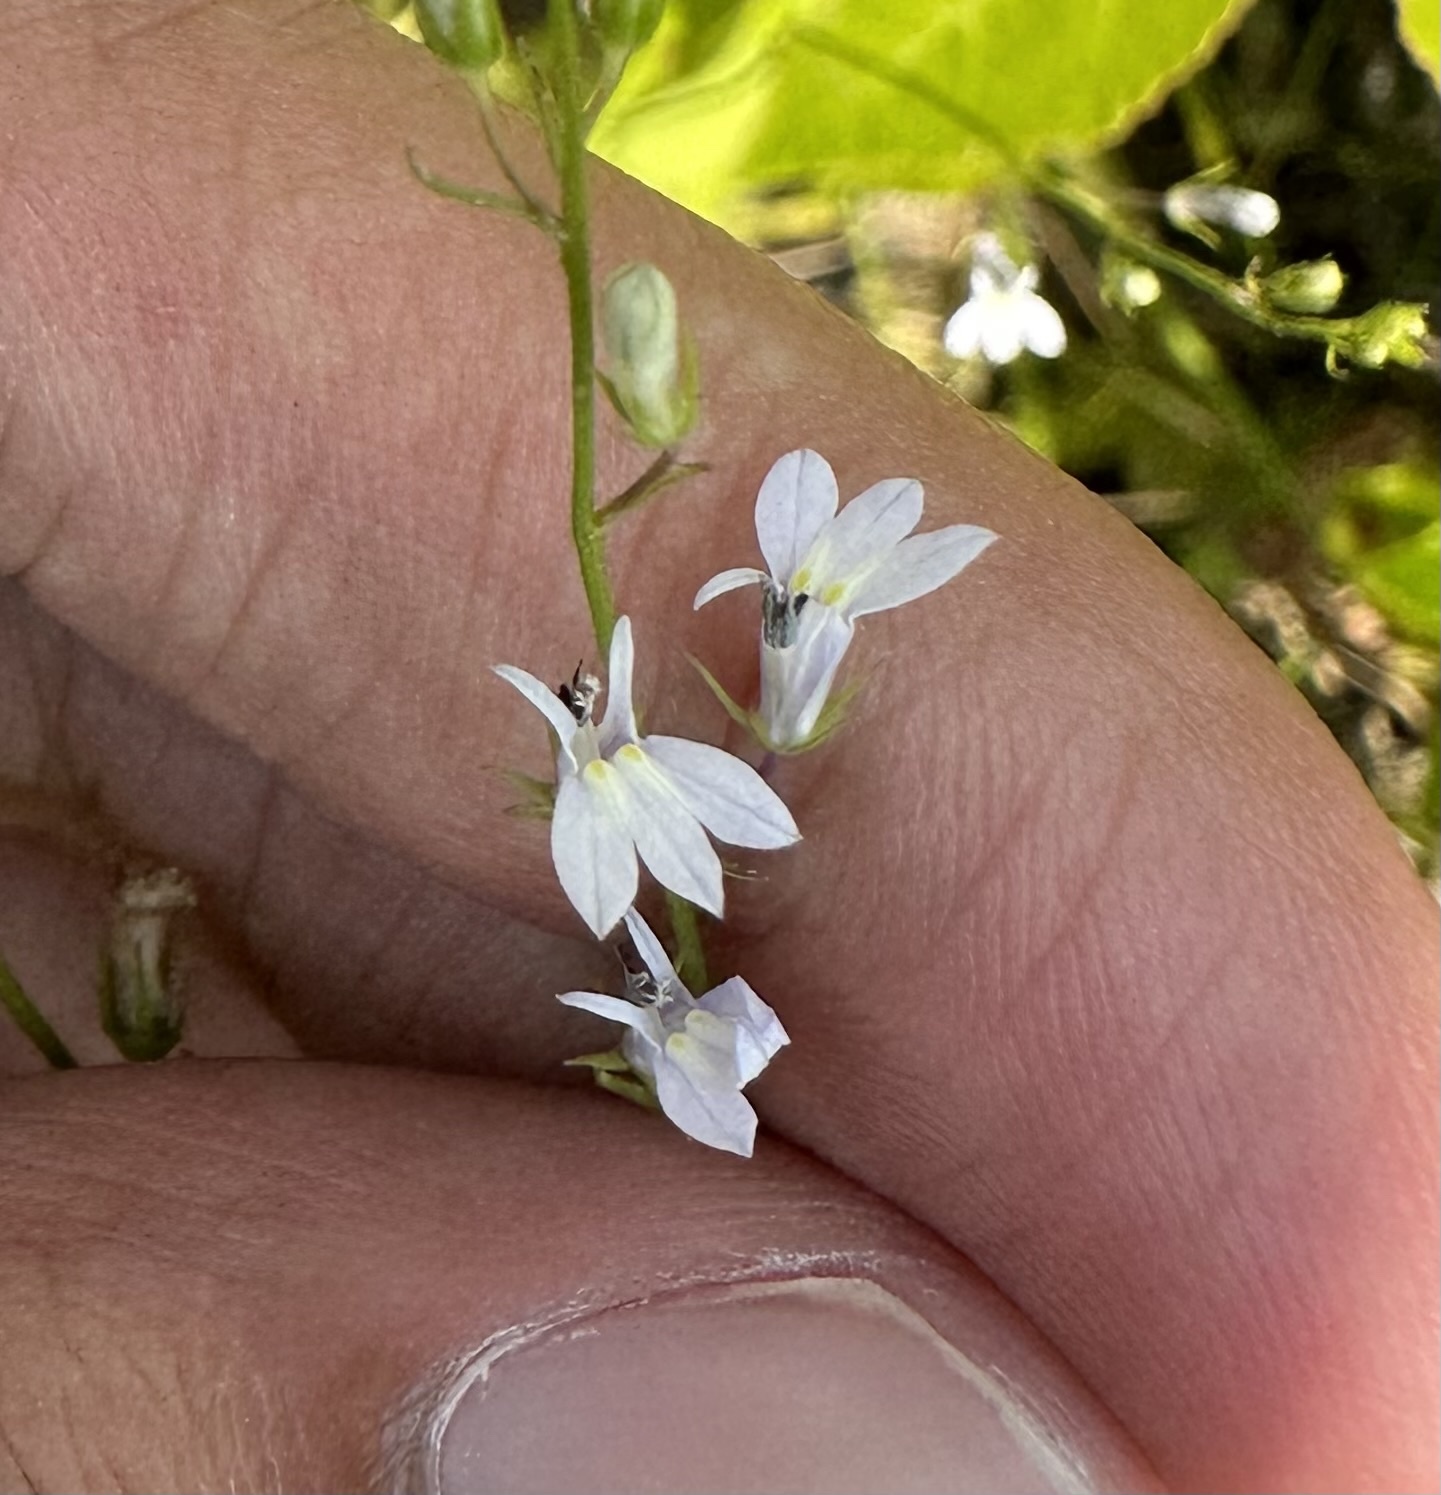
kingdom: Plantae
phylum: Tracheophyta
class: Magnoliopsida
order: Asterales
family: Campanulaceae
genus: Lobelia
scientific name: Lobelia nuttallii
